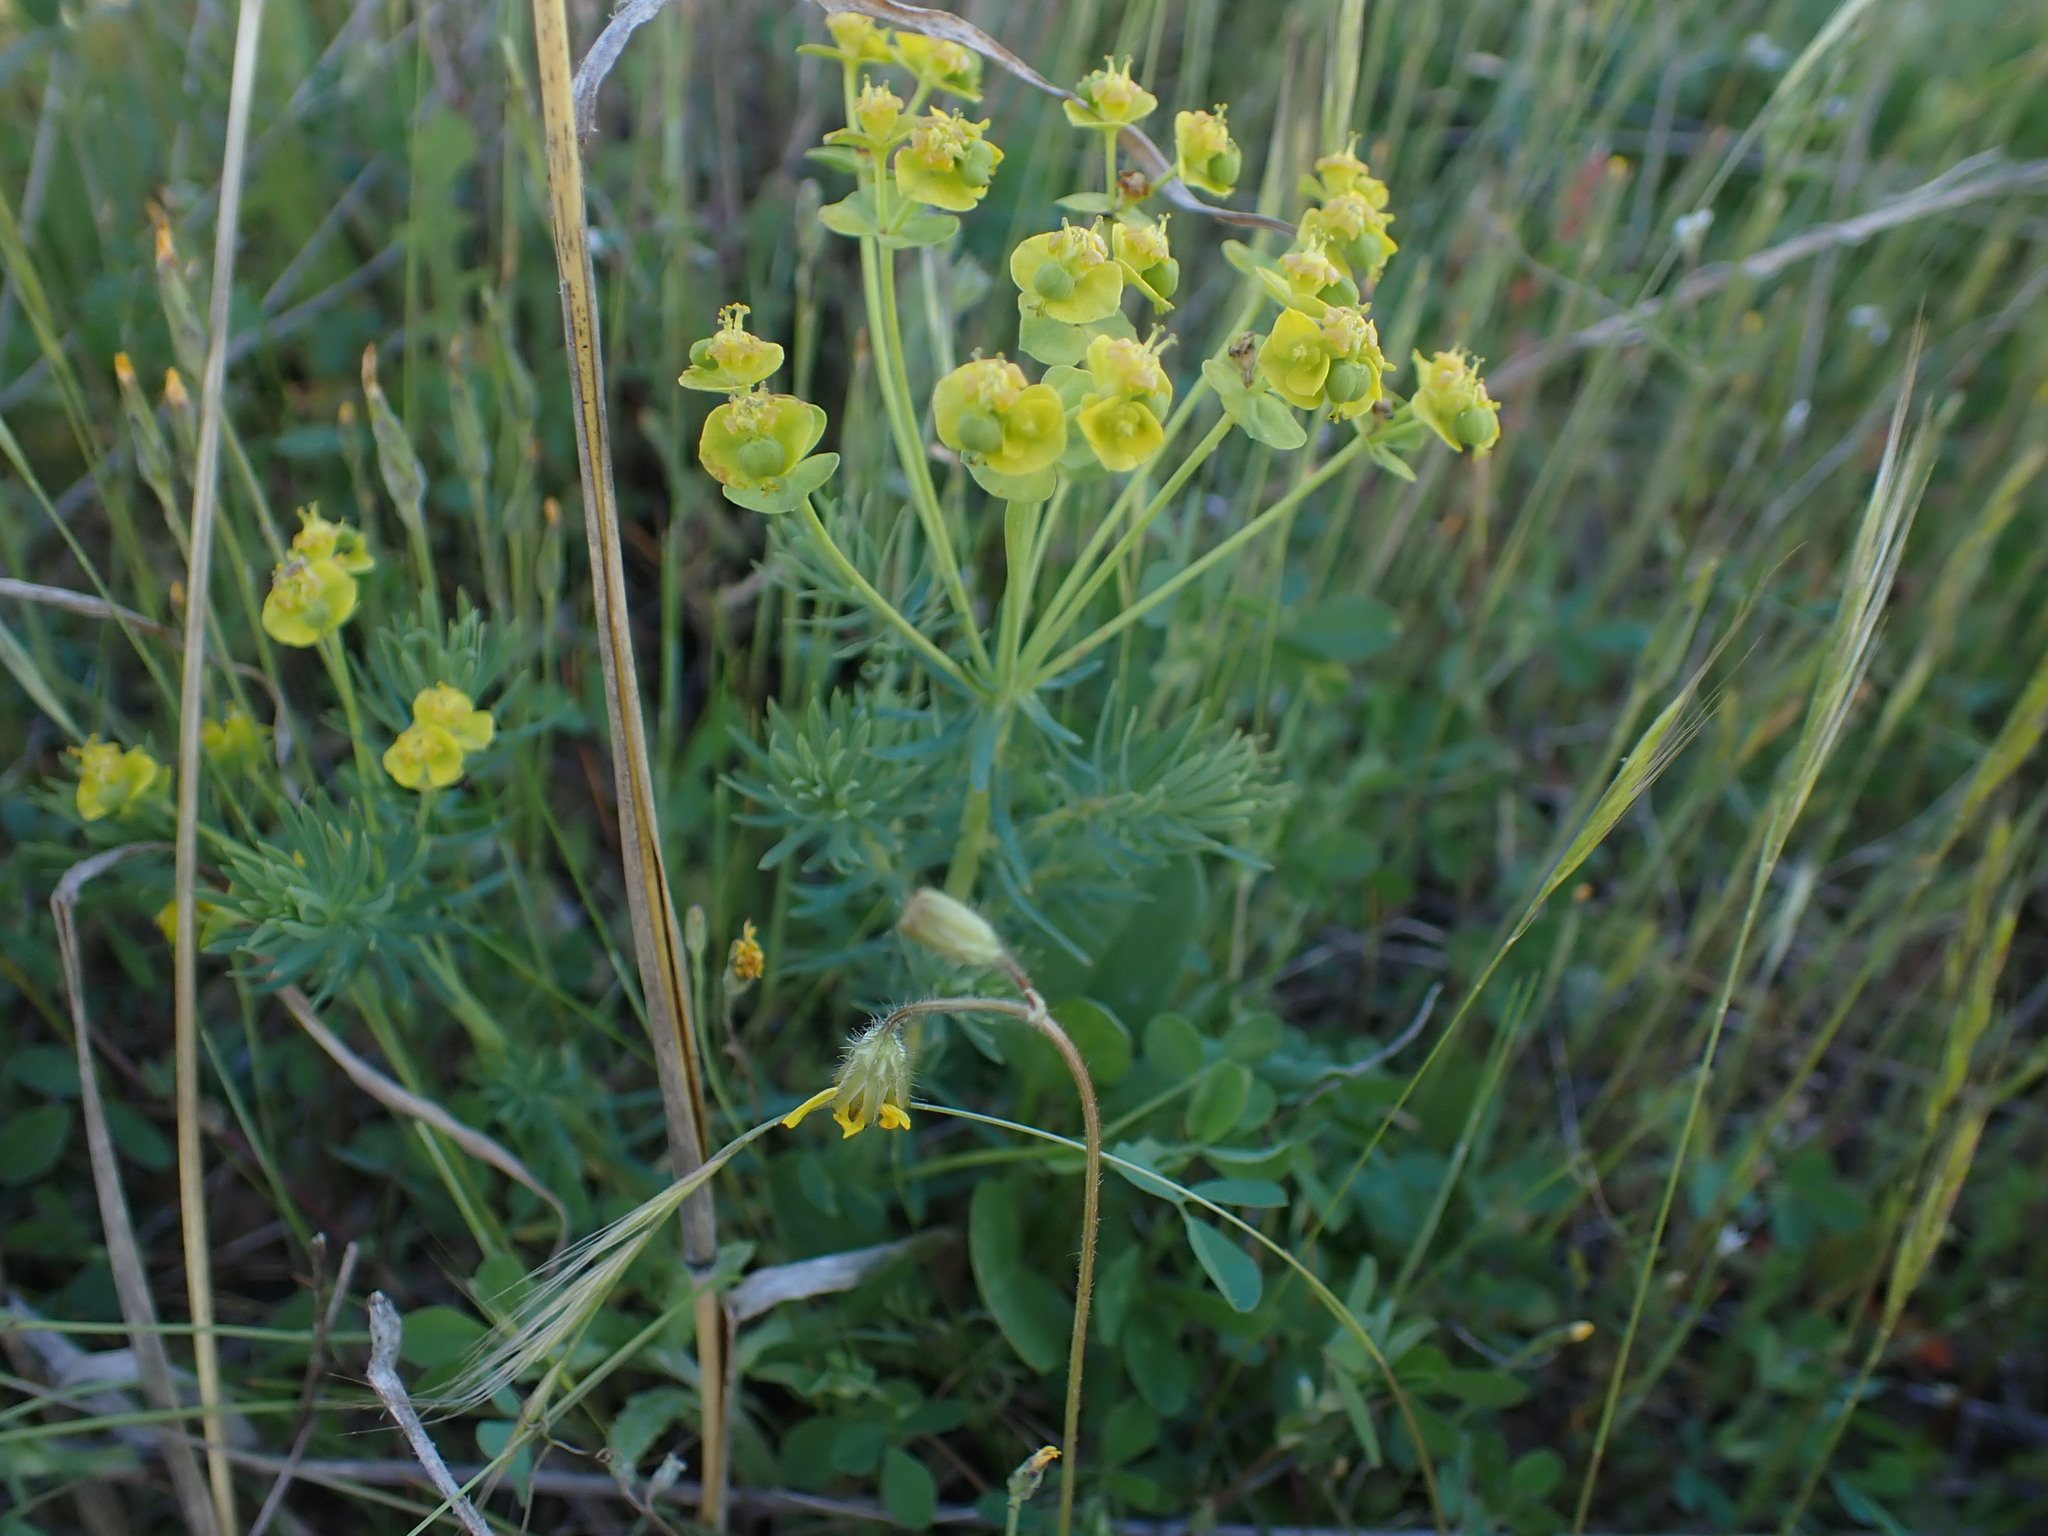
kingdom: Plantae
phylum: Tracheophyta
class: Magnoliopsida
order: Malpighiales
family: Euphorbiaceae
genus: Euphorbia
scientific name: Euphorbia cyparissias
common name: Cypress spurge
